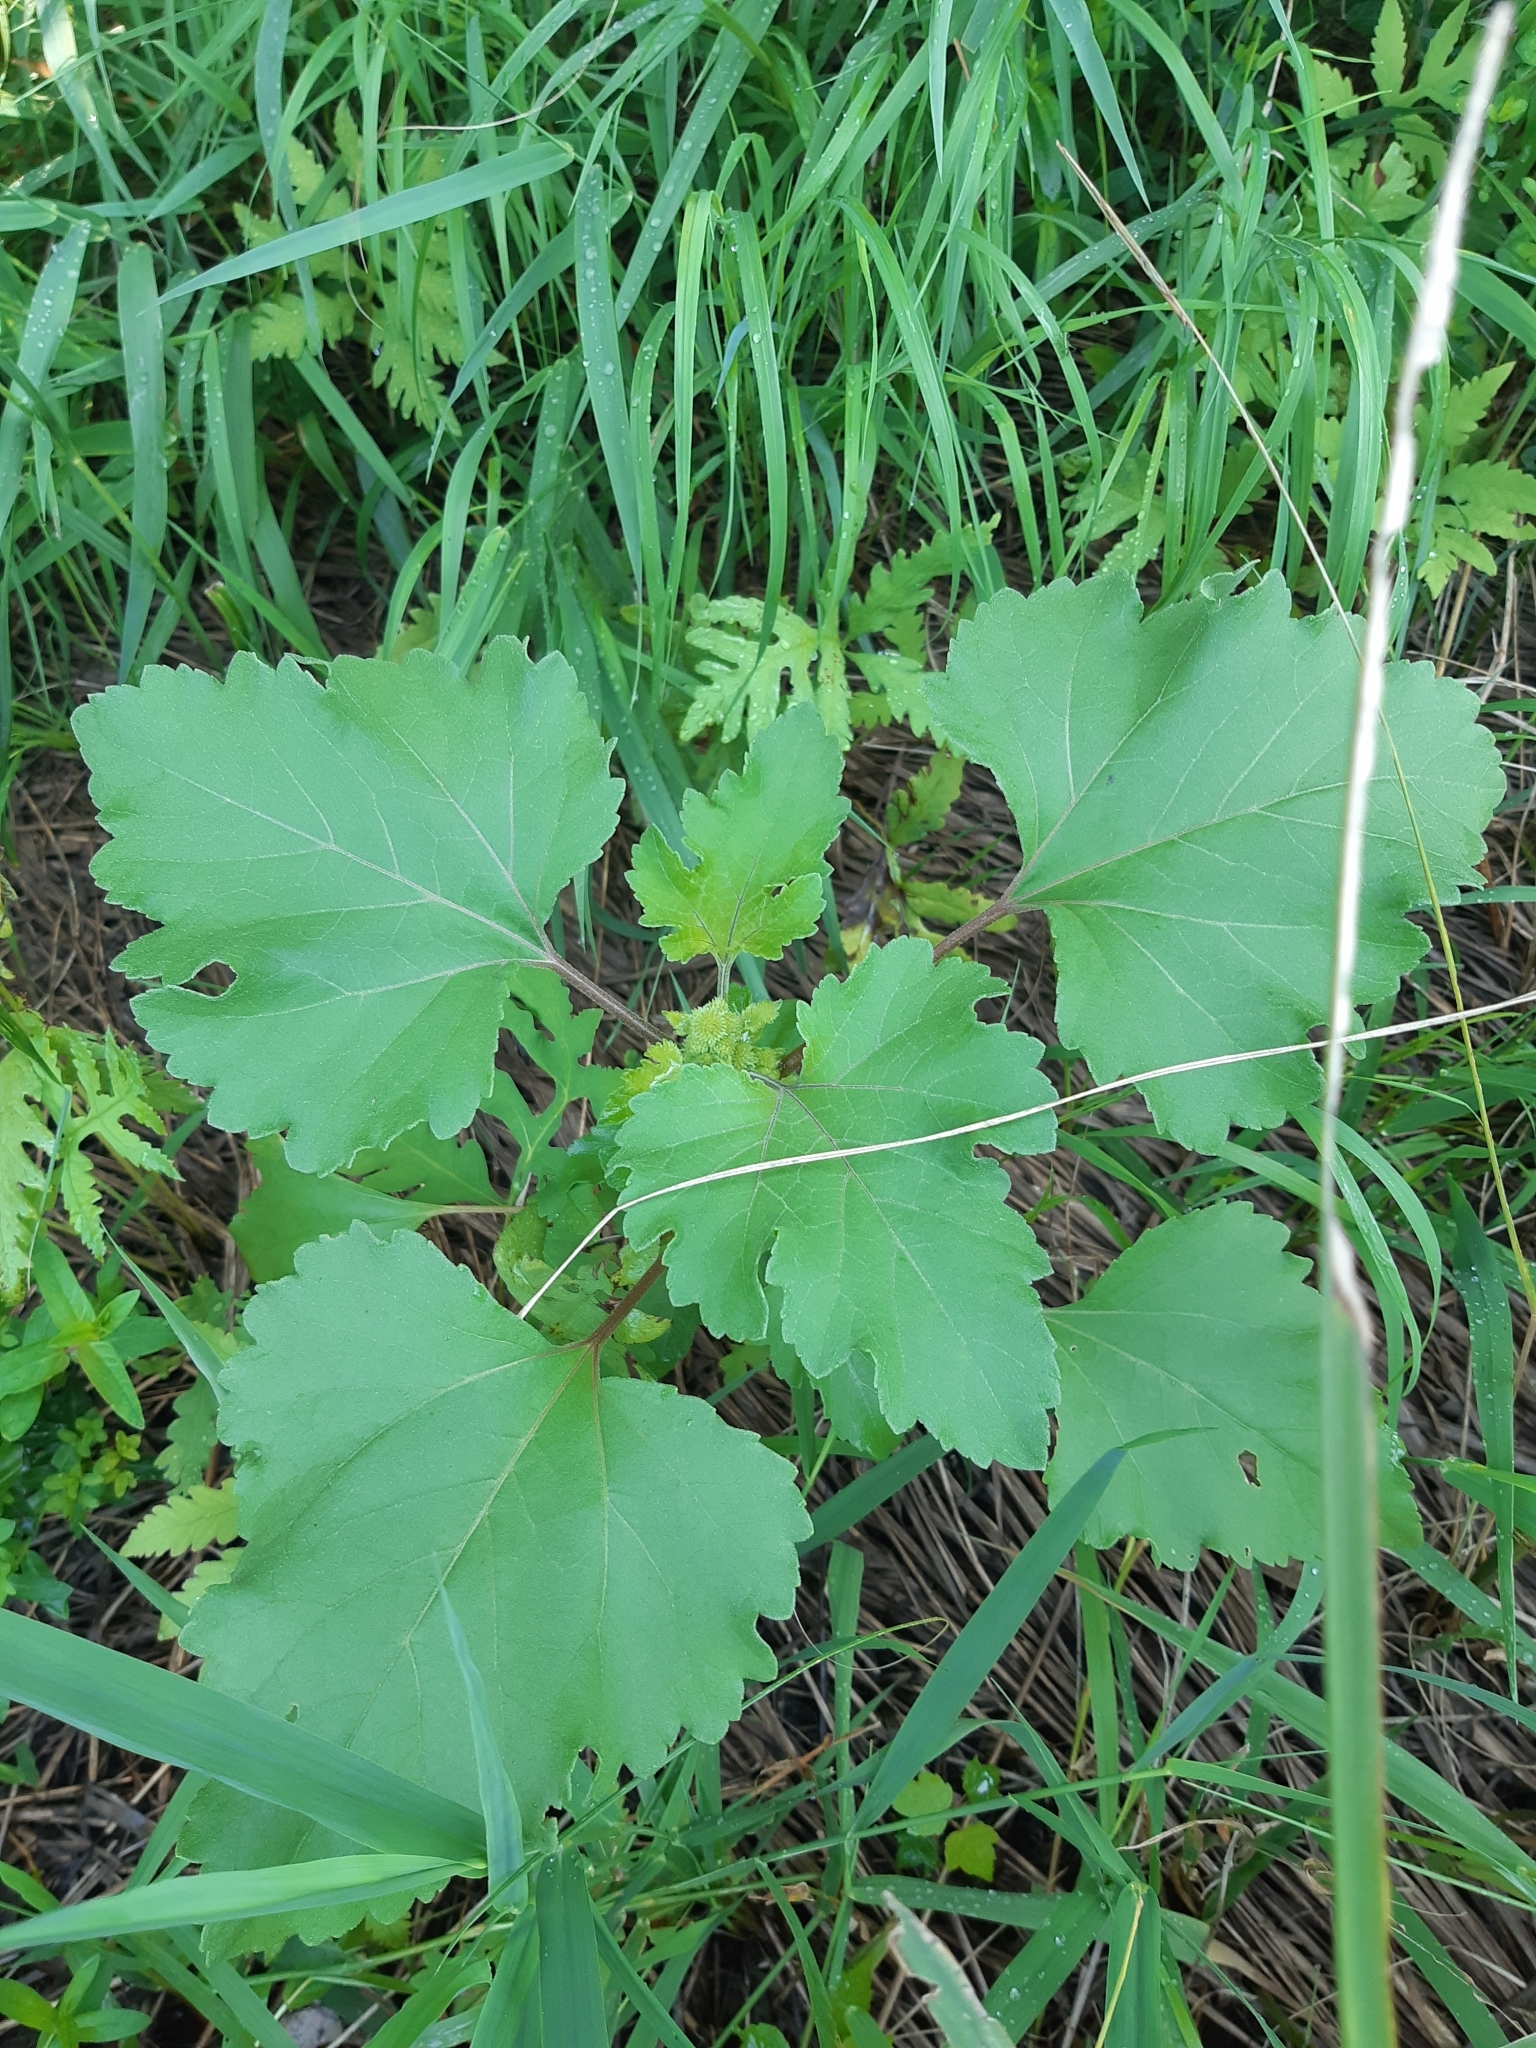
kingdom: Plantae
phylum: Tracheophyta
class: Magnoliopsida
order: Asterales
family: Asteraceae
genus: Xanthium
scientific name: Xanthium strumarium
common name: Rough cocklebur
